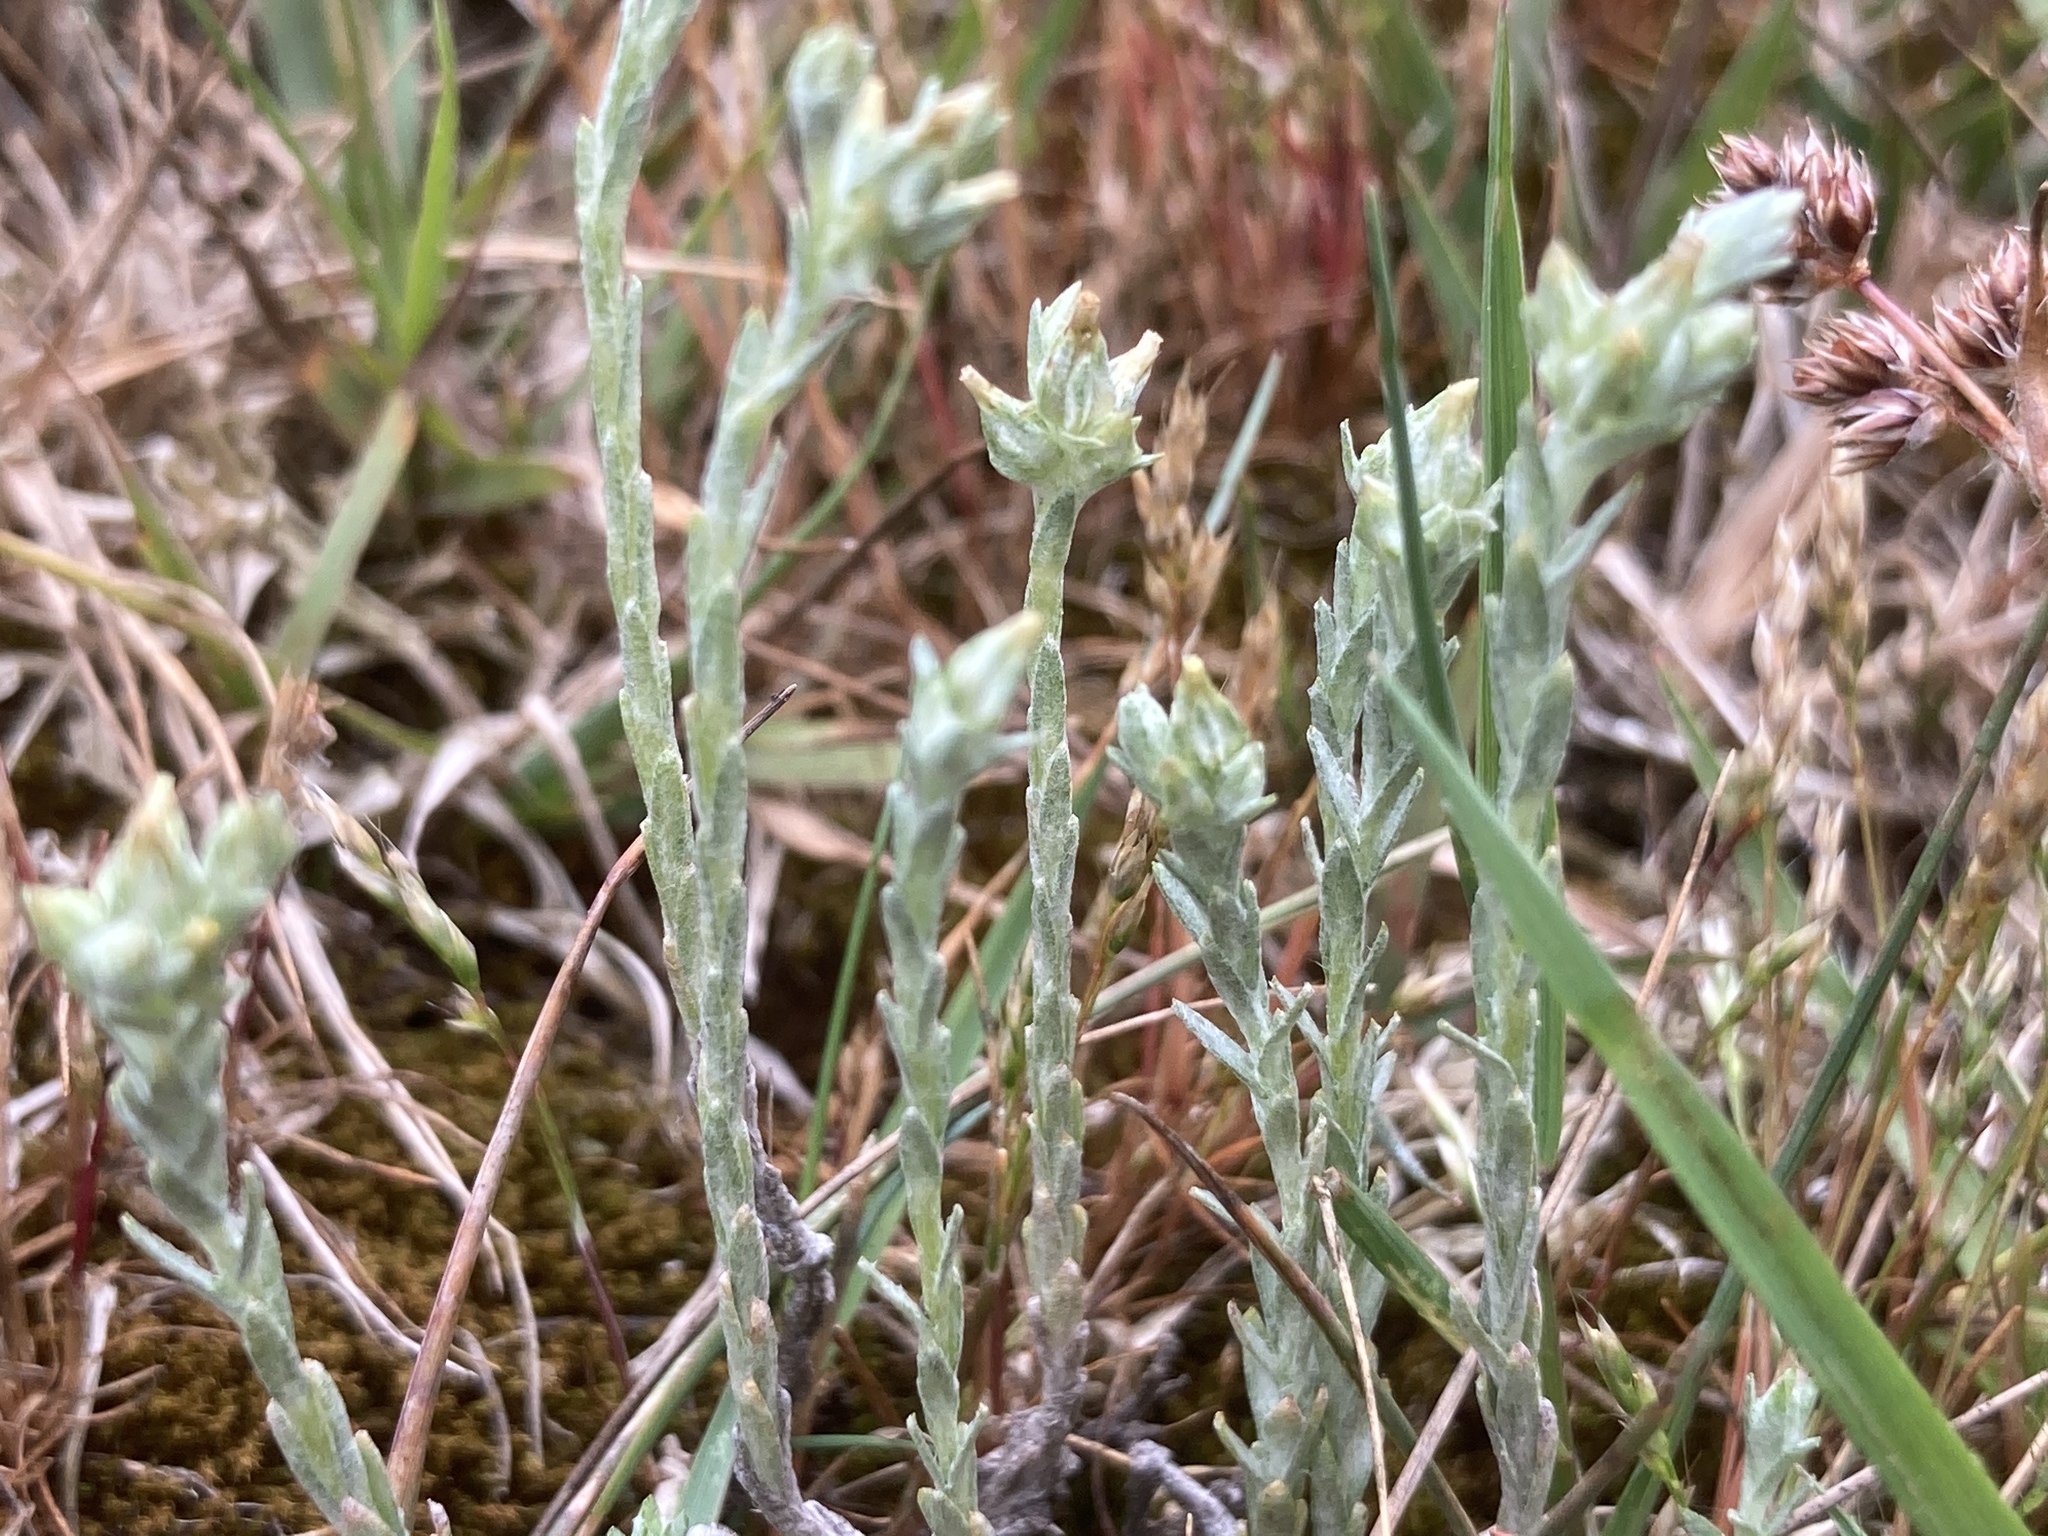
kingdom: Plantae
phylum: Tracheophyta
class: Magnoliopsida
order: Asterales
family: Asteraceae
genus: Logfia
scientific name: Logfia minima
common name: Little cottonrose
